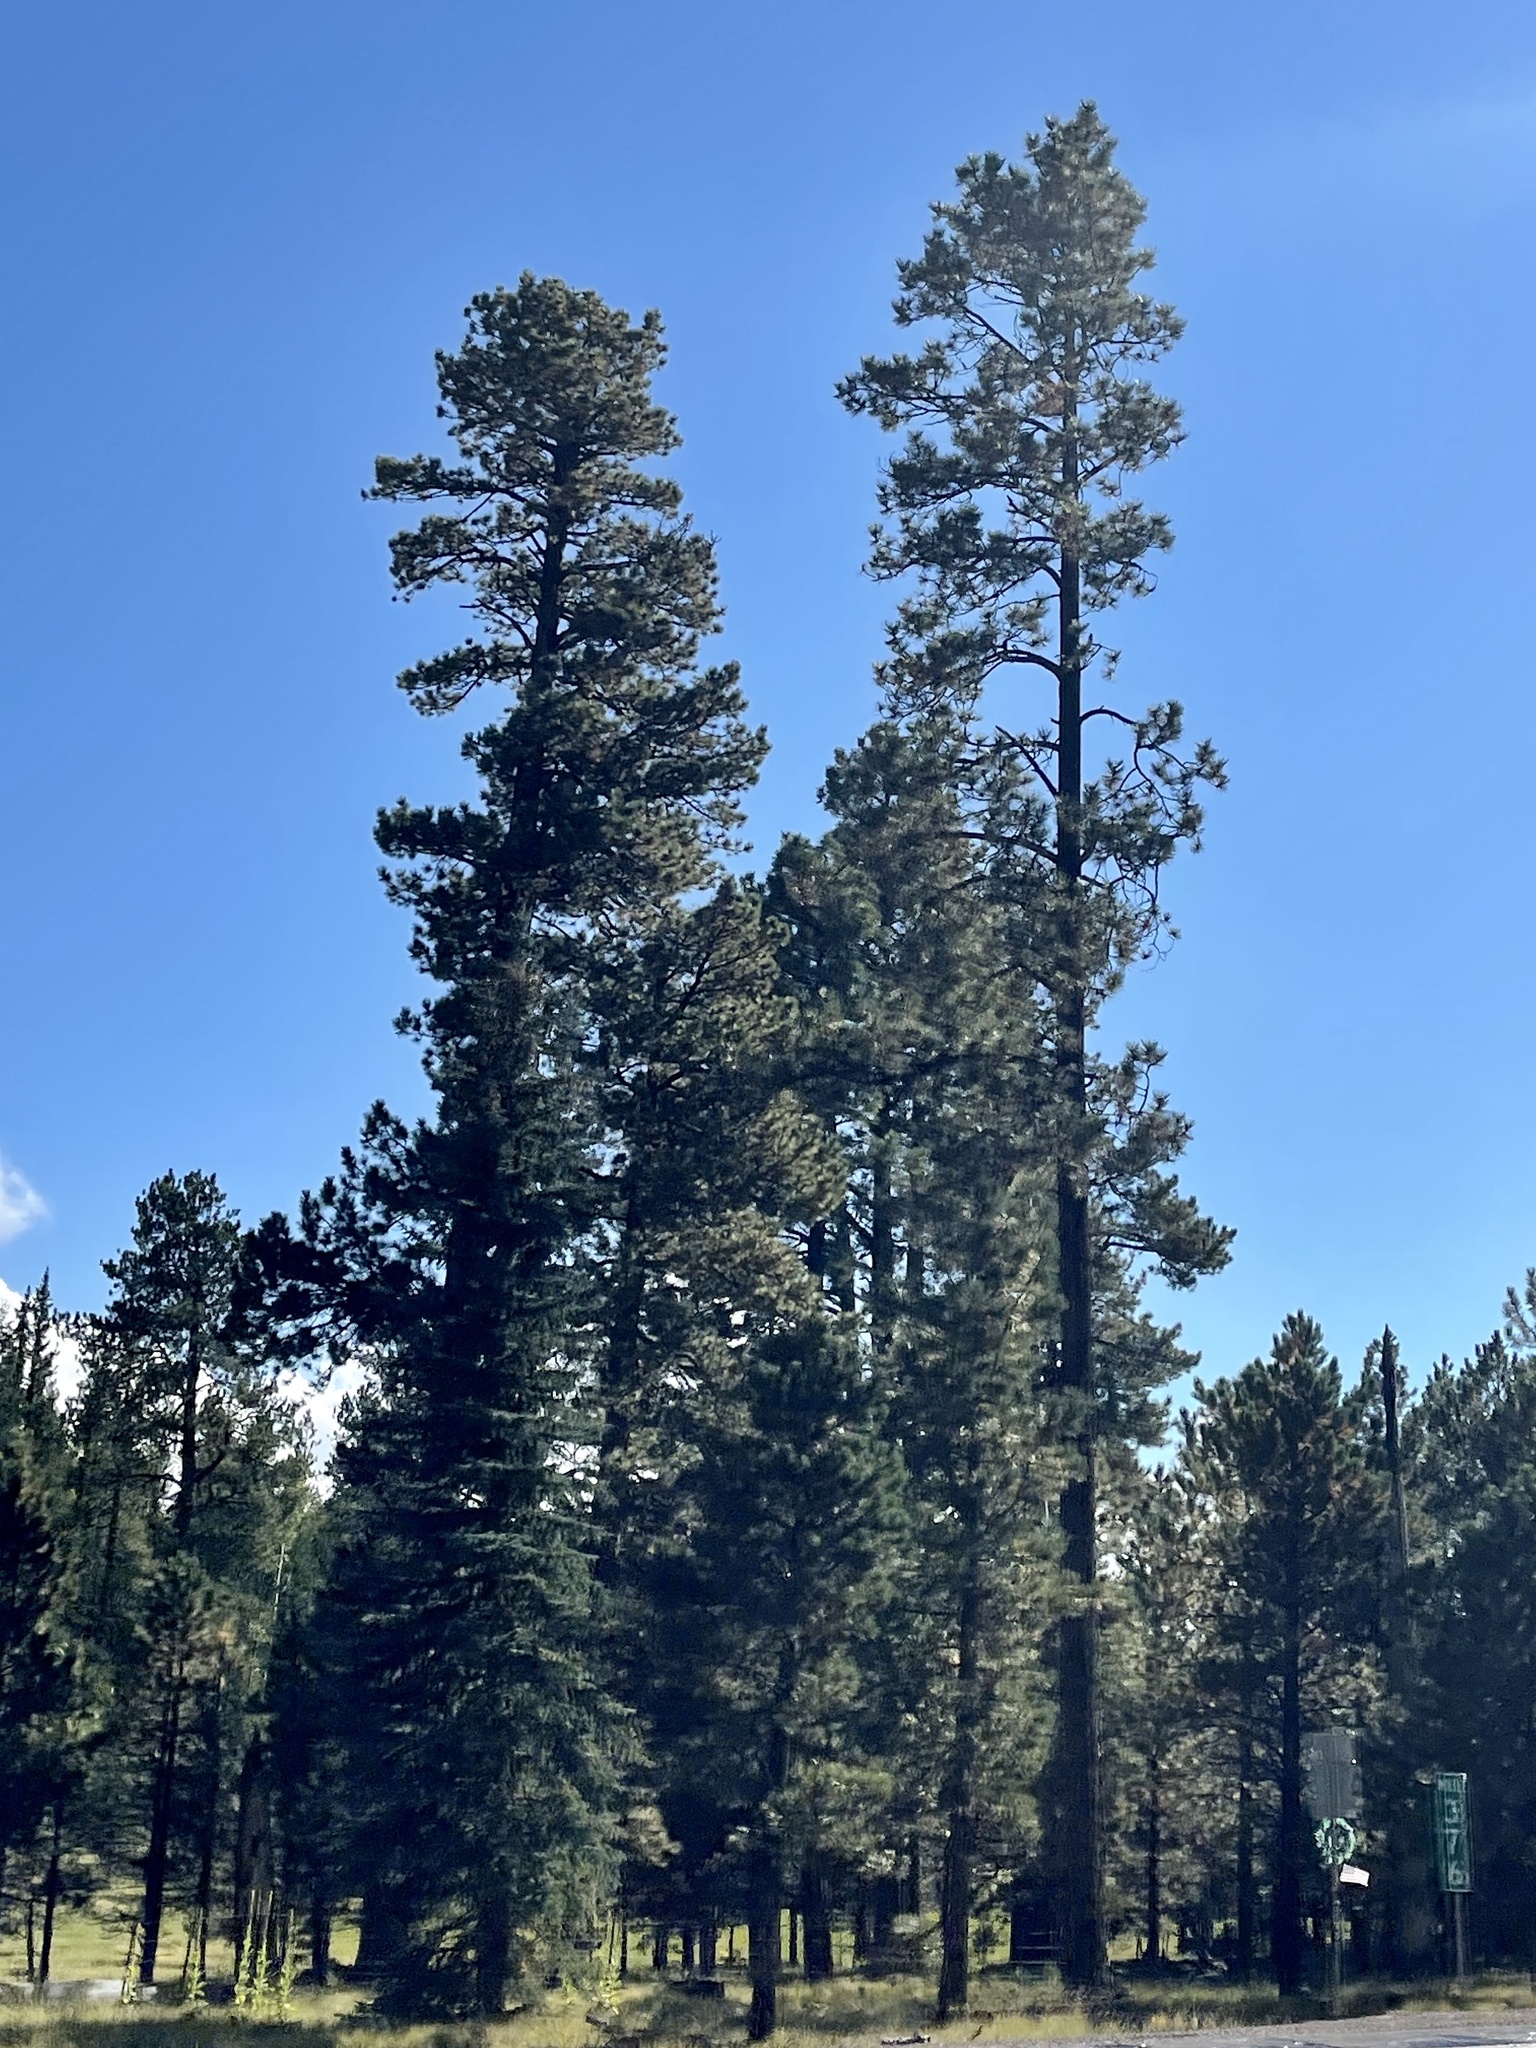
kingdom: Plantae
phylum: Tracheophyta
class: Pinopsida
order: Pinales
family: Pinaceae
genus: Pinus
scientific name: Pinus ponderosa
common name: Western yellow-pine
